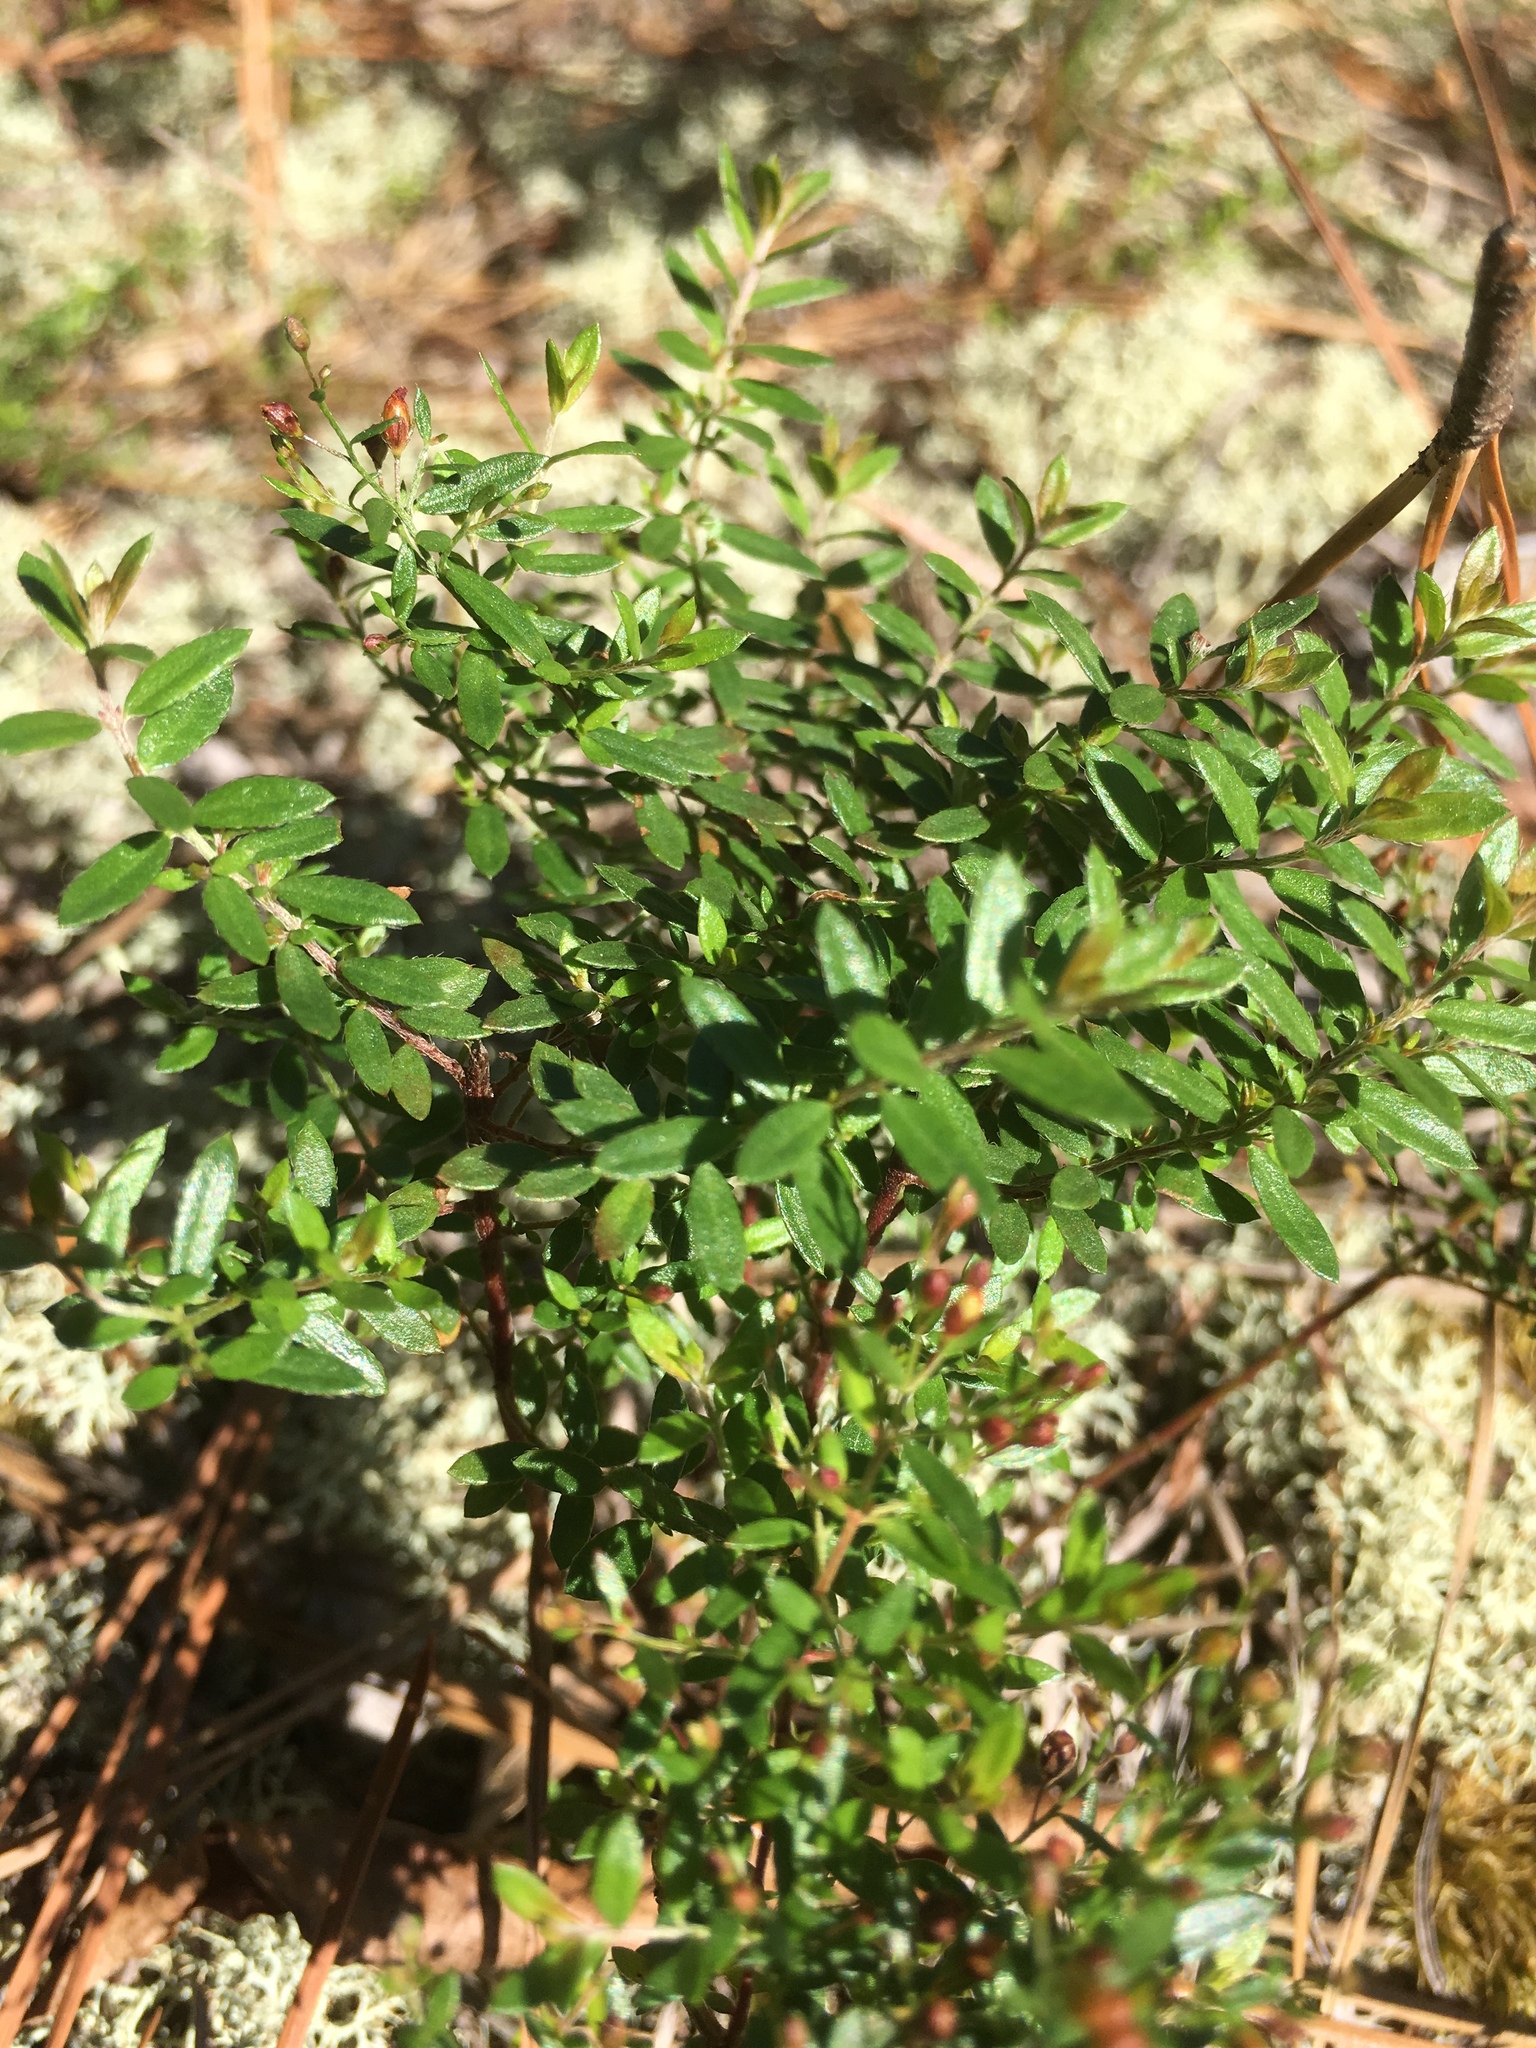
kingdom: Plantae
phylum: Tracheophyta
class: Magnoliopsida
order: Malvales
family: Cistaceae
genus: Lechea
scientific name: Lechea racemulosa
